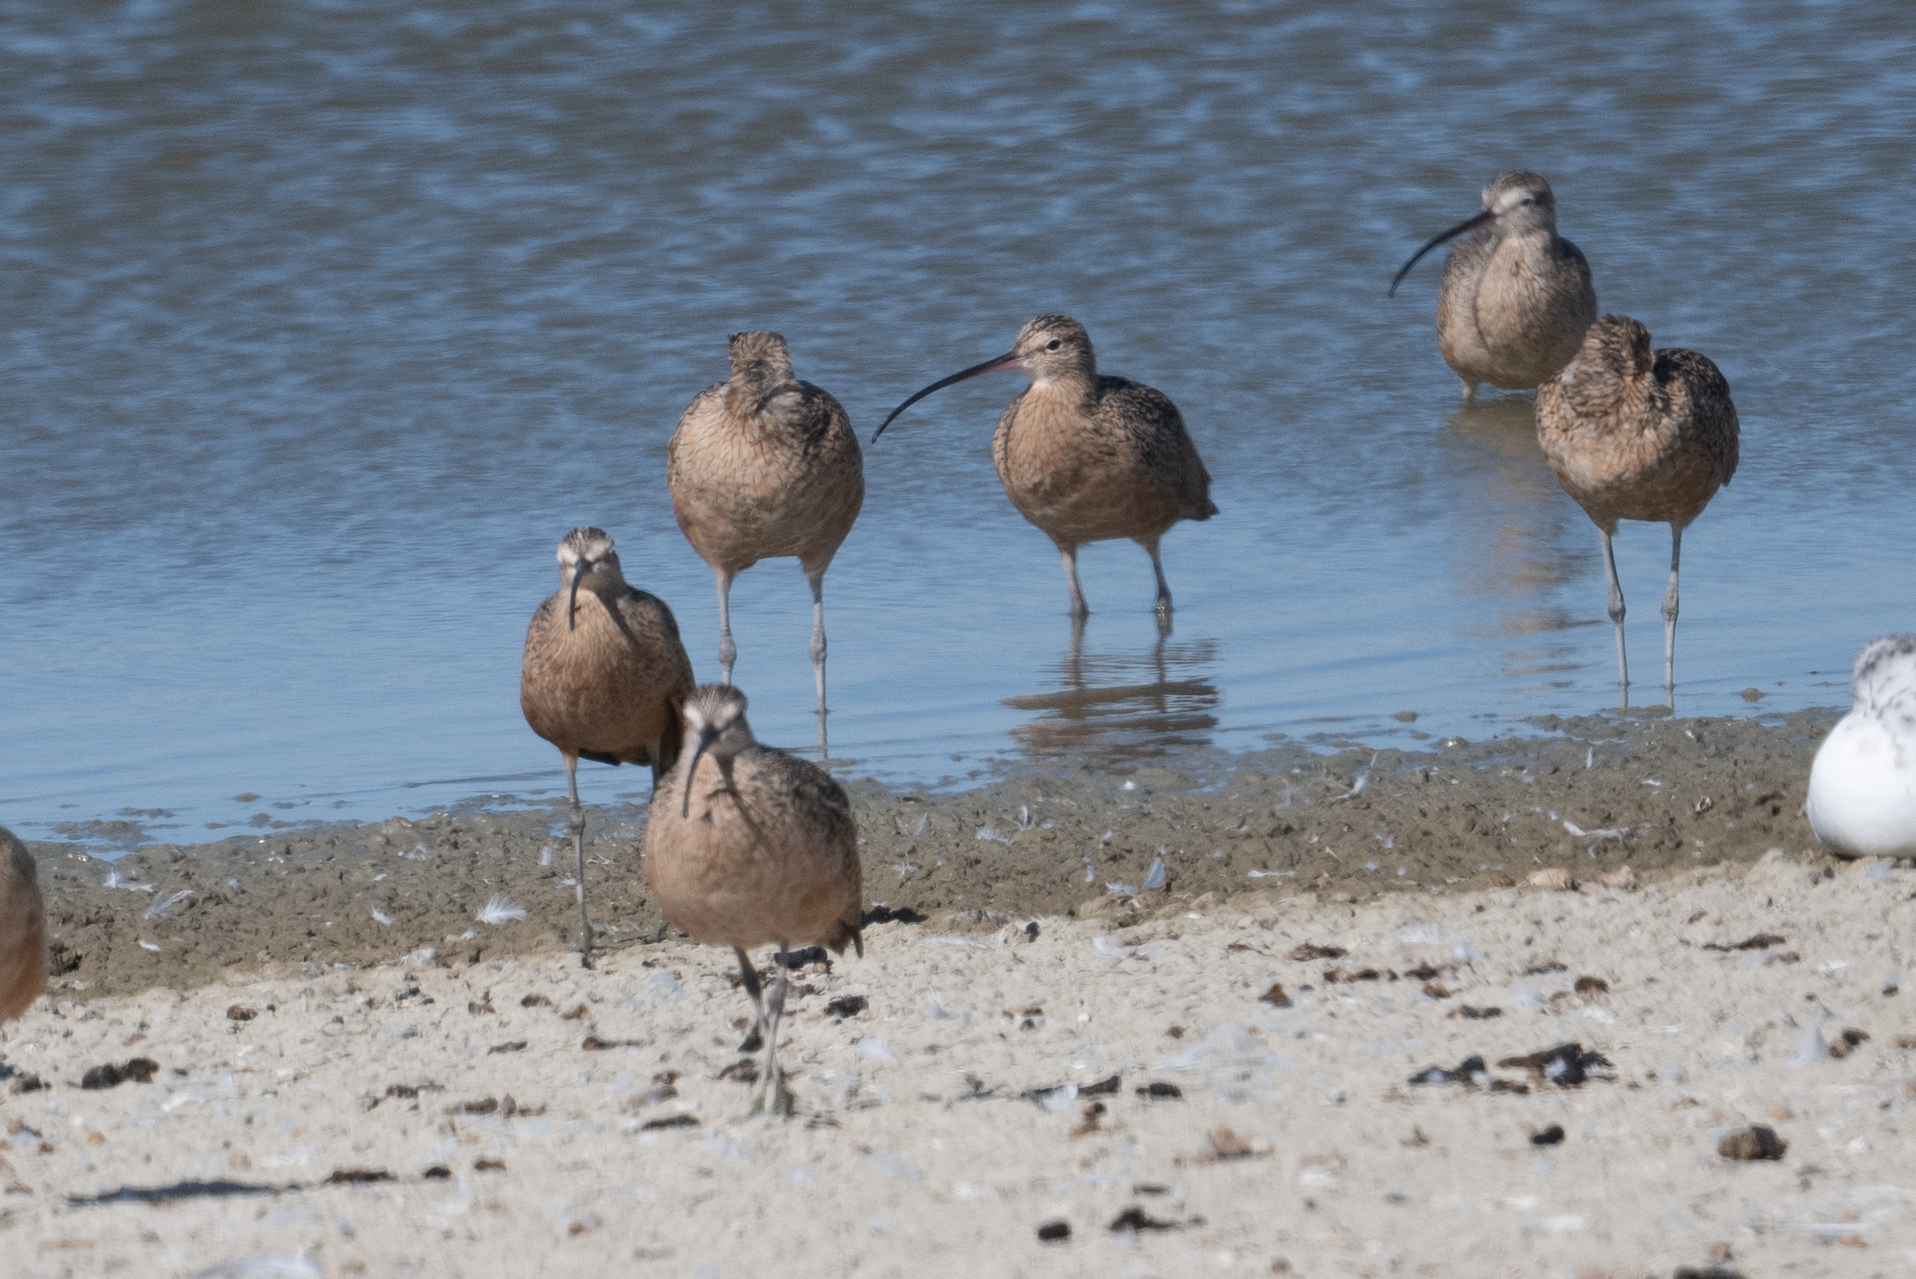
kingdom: Animalia
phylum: Chordata
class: Aves
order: Charadriiformes
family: Scolopacidae
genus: Numenius
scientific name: Numenius americanus
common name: Long-billed curlew
